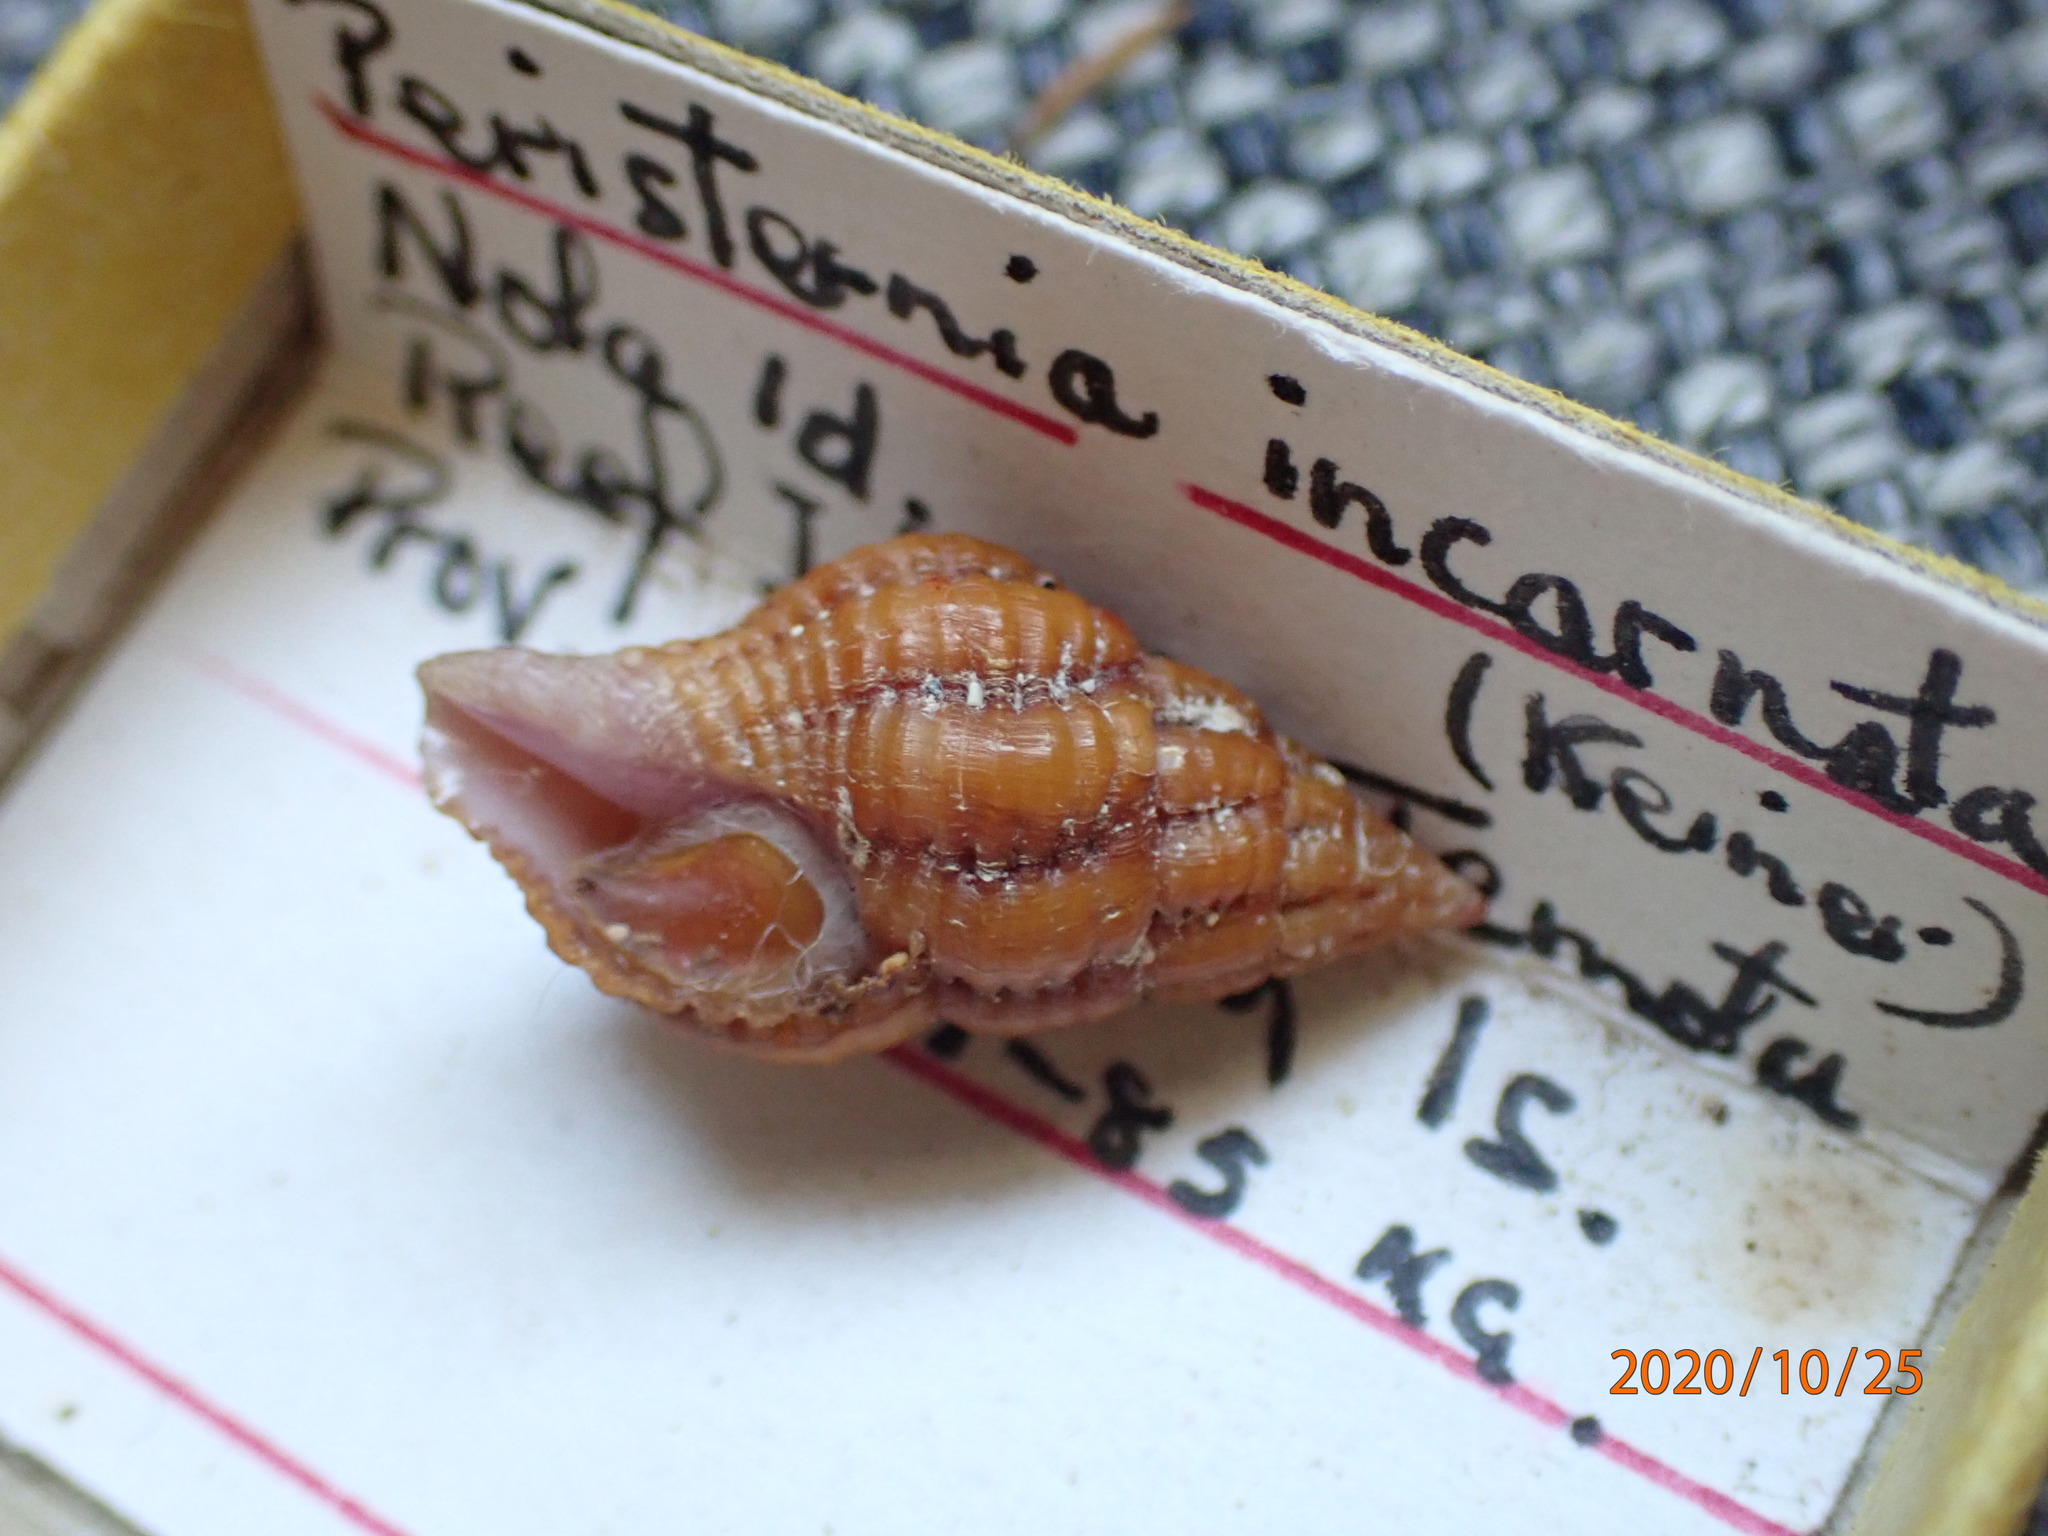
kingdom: Animalia
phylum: Mollusca
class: Gastropoda
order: Neogastropoda
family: Fasciolariidae
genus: Peristernia
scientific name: Peristernia reincarnata
